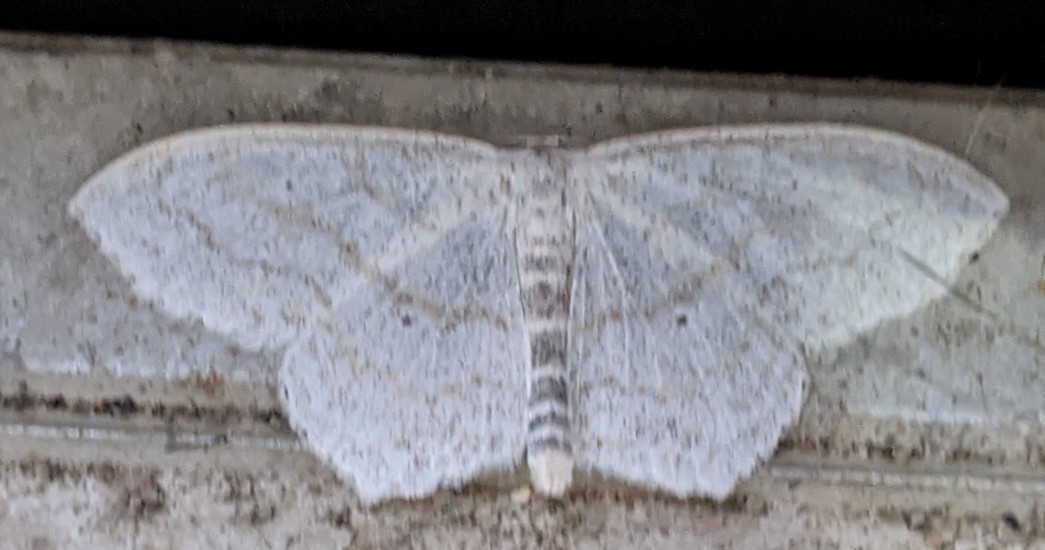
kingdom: Animalia
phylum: Arthropoda
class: Insecta
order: Lepidoptera
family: Geometridae
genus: Scopula
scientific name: Scopula limboundata
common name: Large lace border
